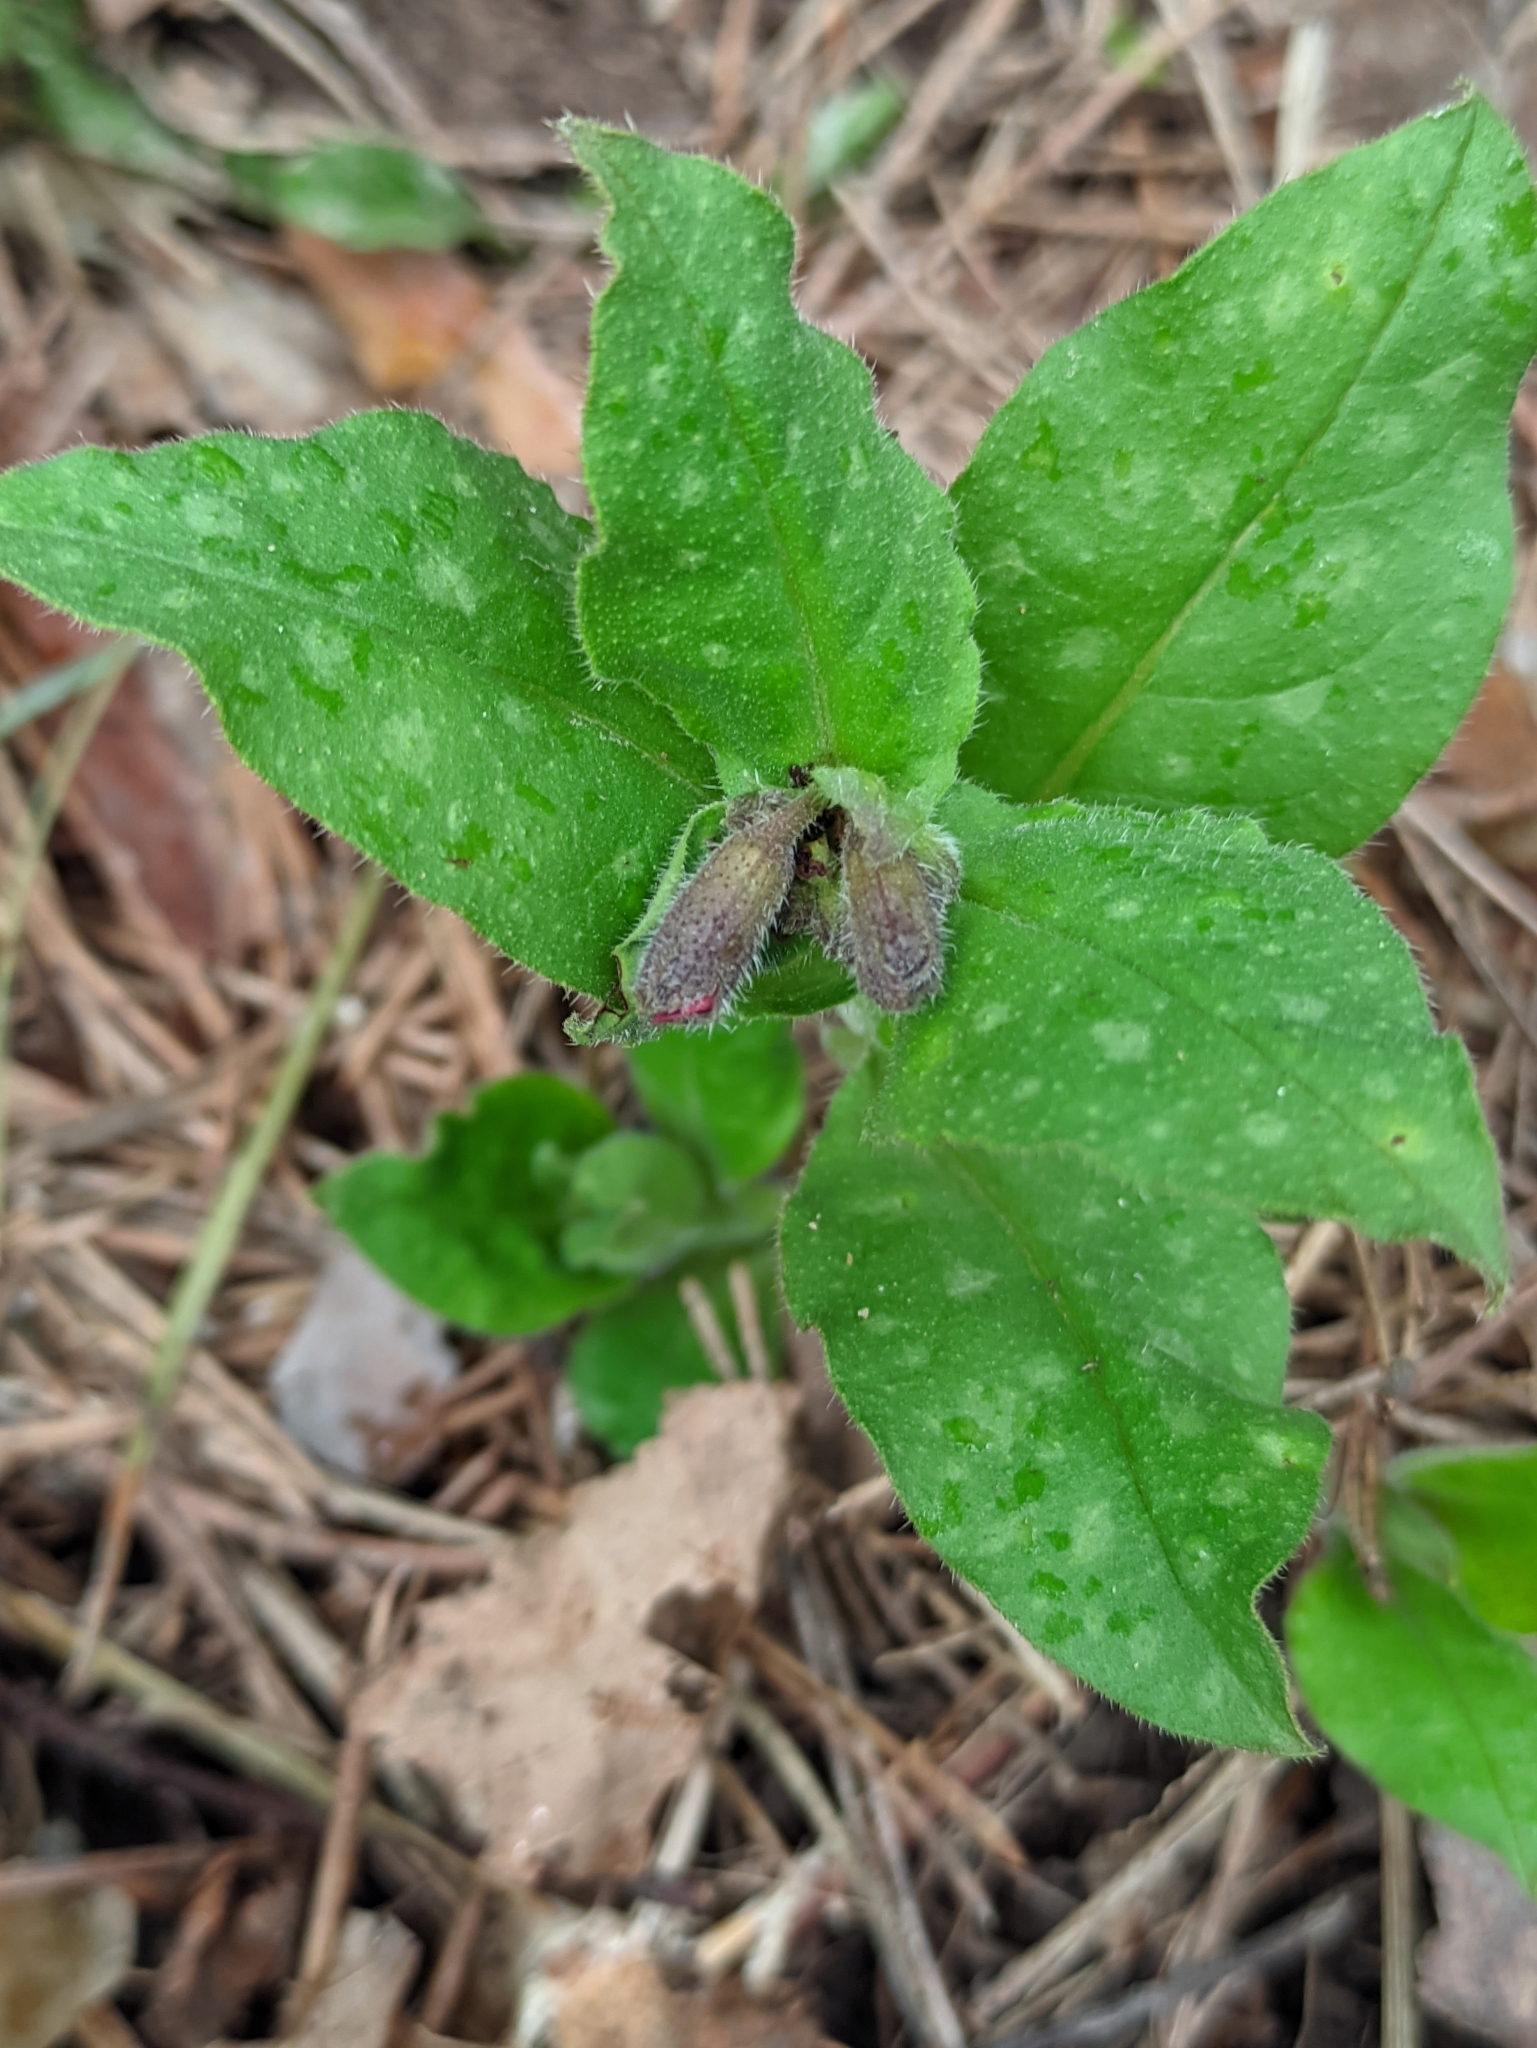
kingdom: Plantae
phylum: Tracheophyta
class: Magnoliopsida
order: Boraginales
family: Boraginaceae
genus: Pulmonaria
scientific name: Pulmonaria obscura
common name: Suffolk lungwort
